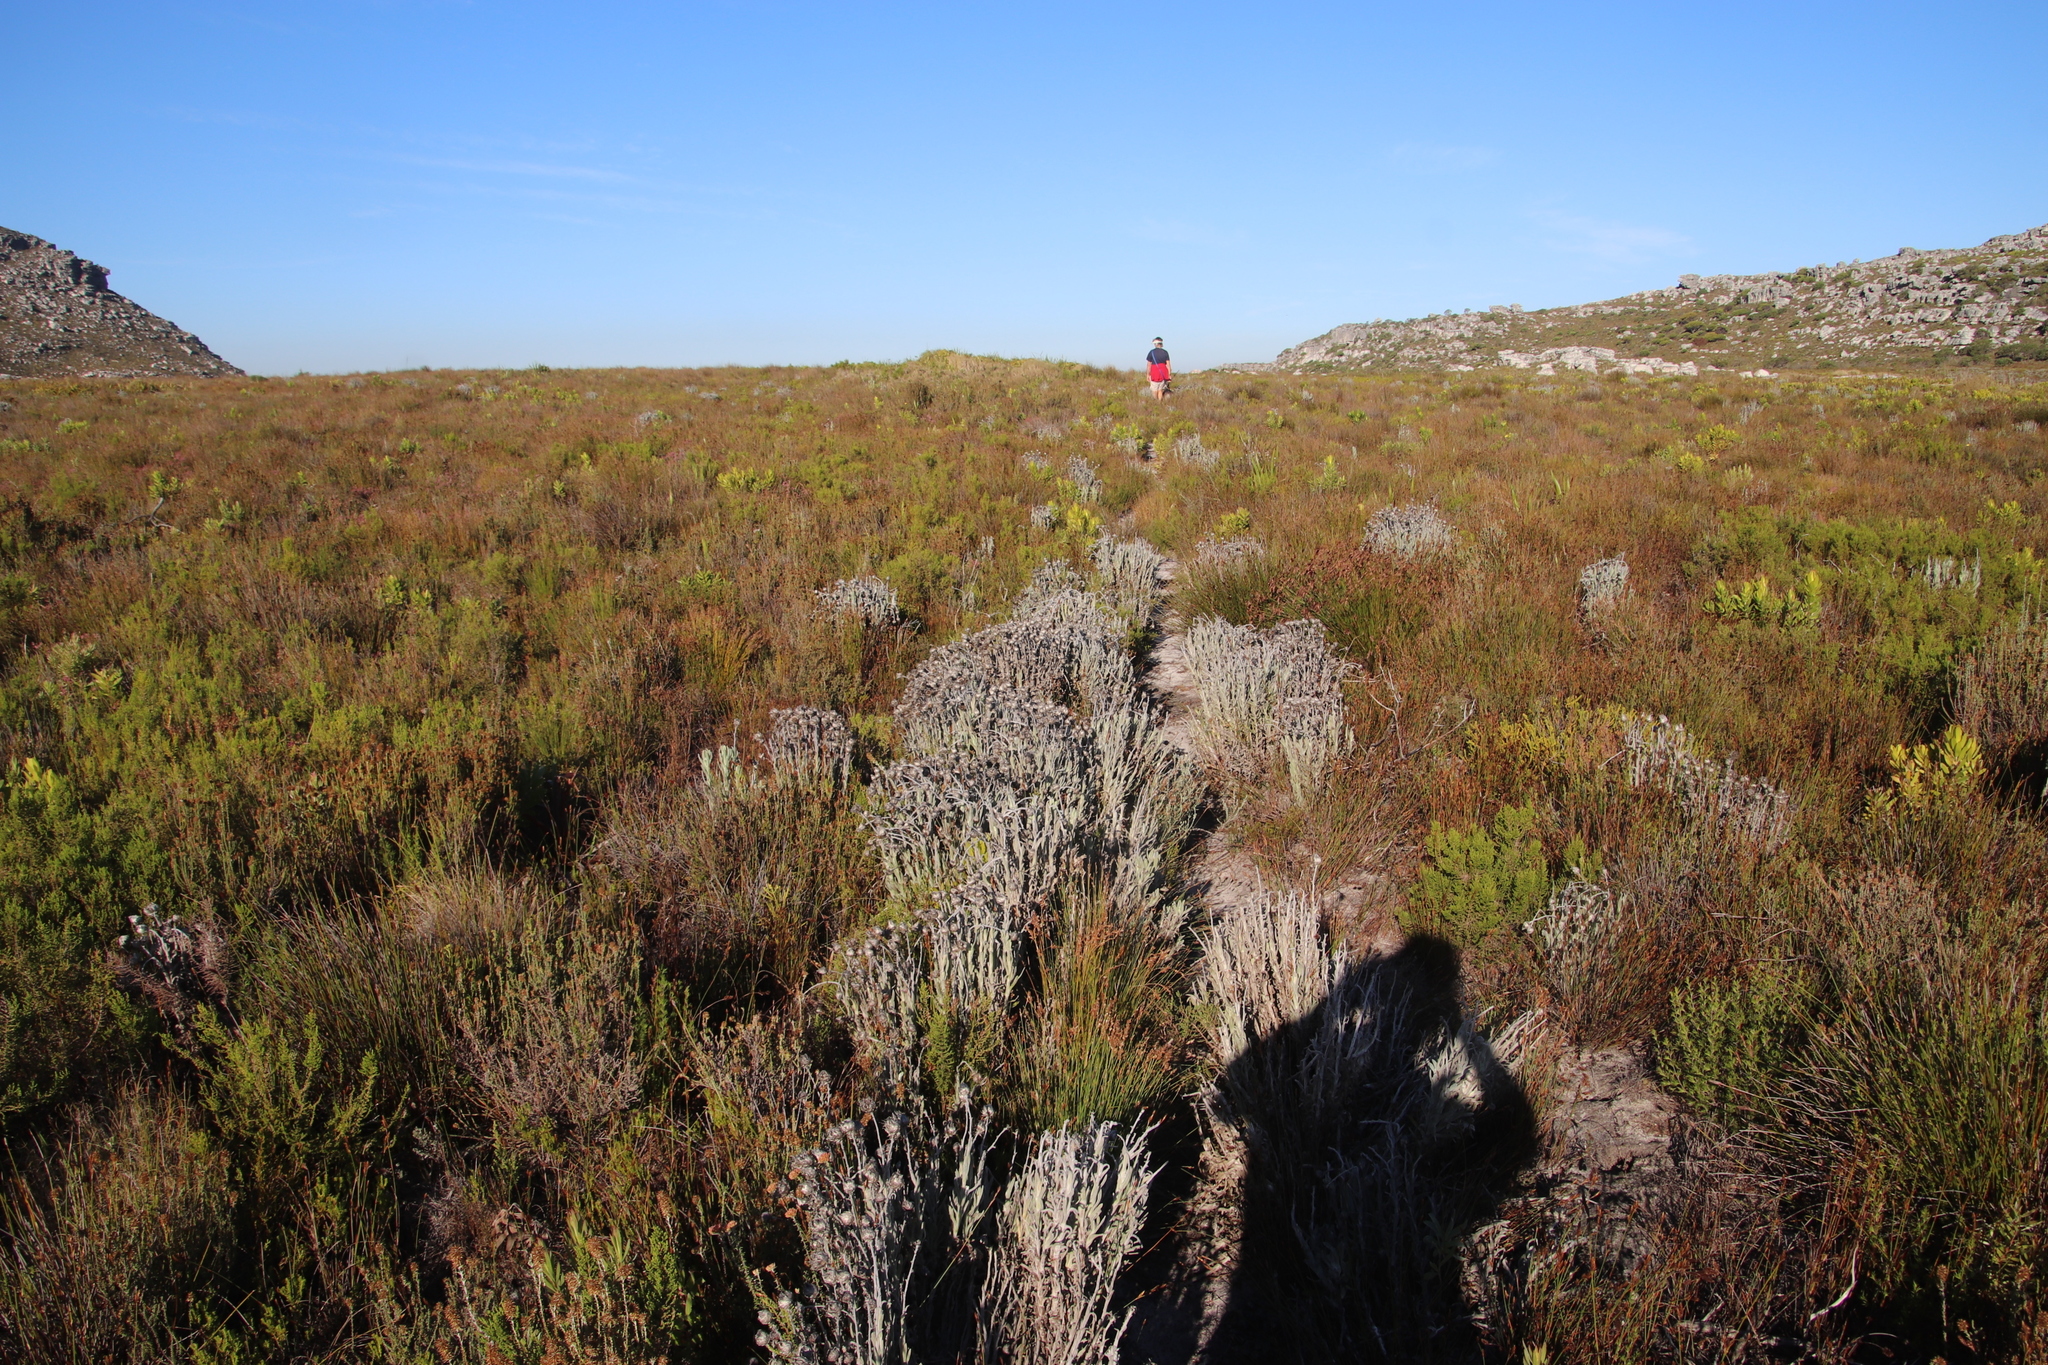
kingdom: Plantae
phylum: Tracheophyta
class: Magnoliopsida
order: Asterales
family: Asteraceae
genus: Syncarpha
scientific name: Syncarpha vestita
